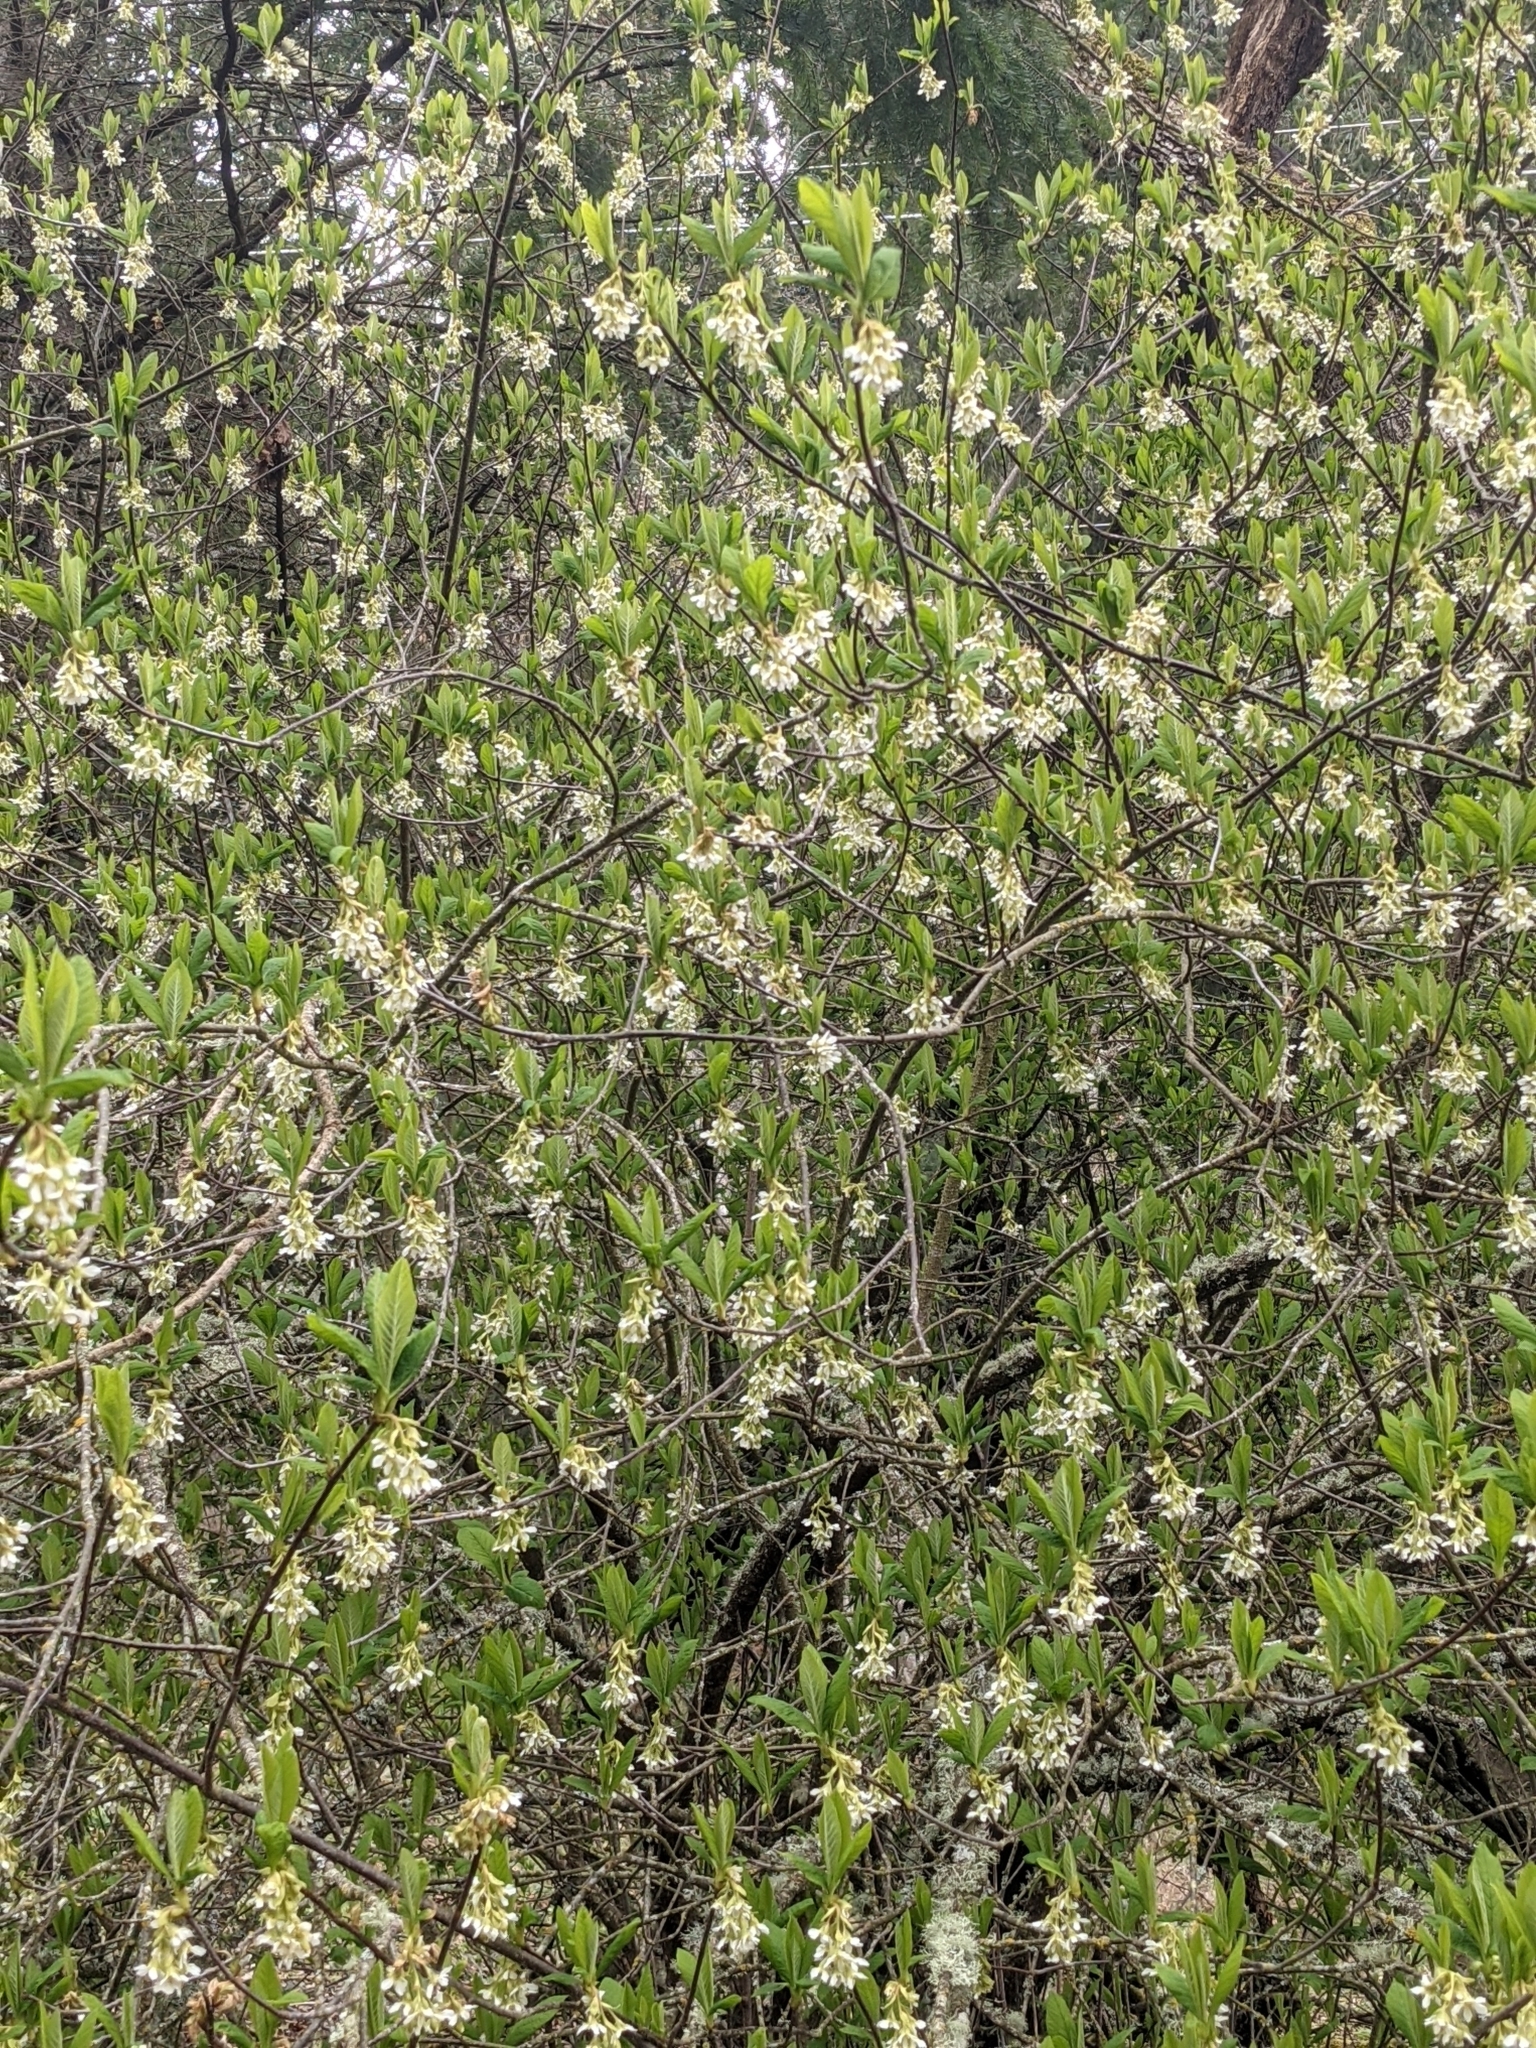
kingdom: Plantae
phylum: Tracheophyta
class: Magnoliopsida
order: Rosales
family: Rosaceae
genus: Oemleria
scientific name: Oemleria cerasiformis
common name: Osoberry
